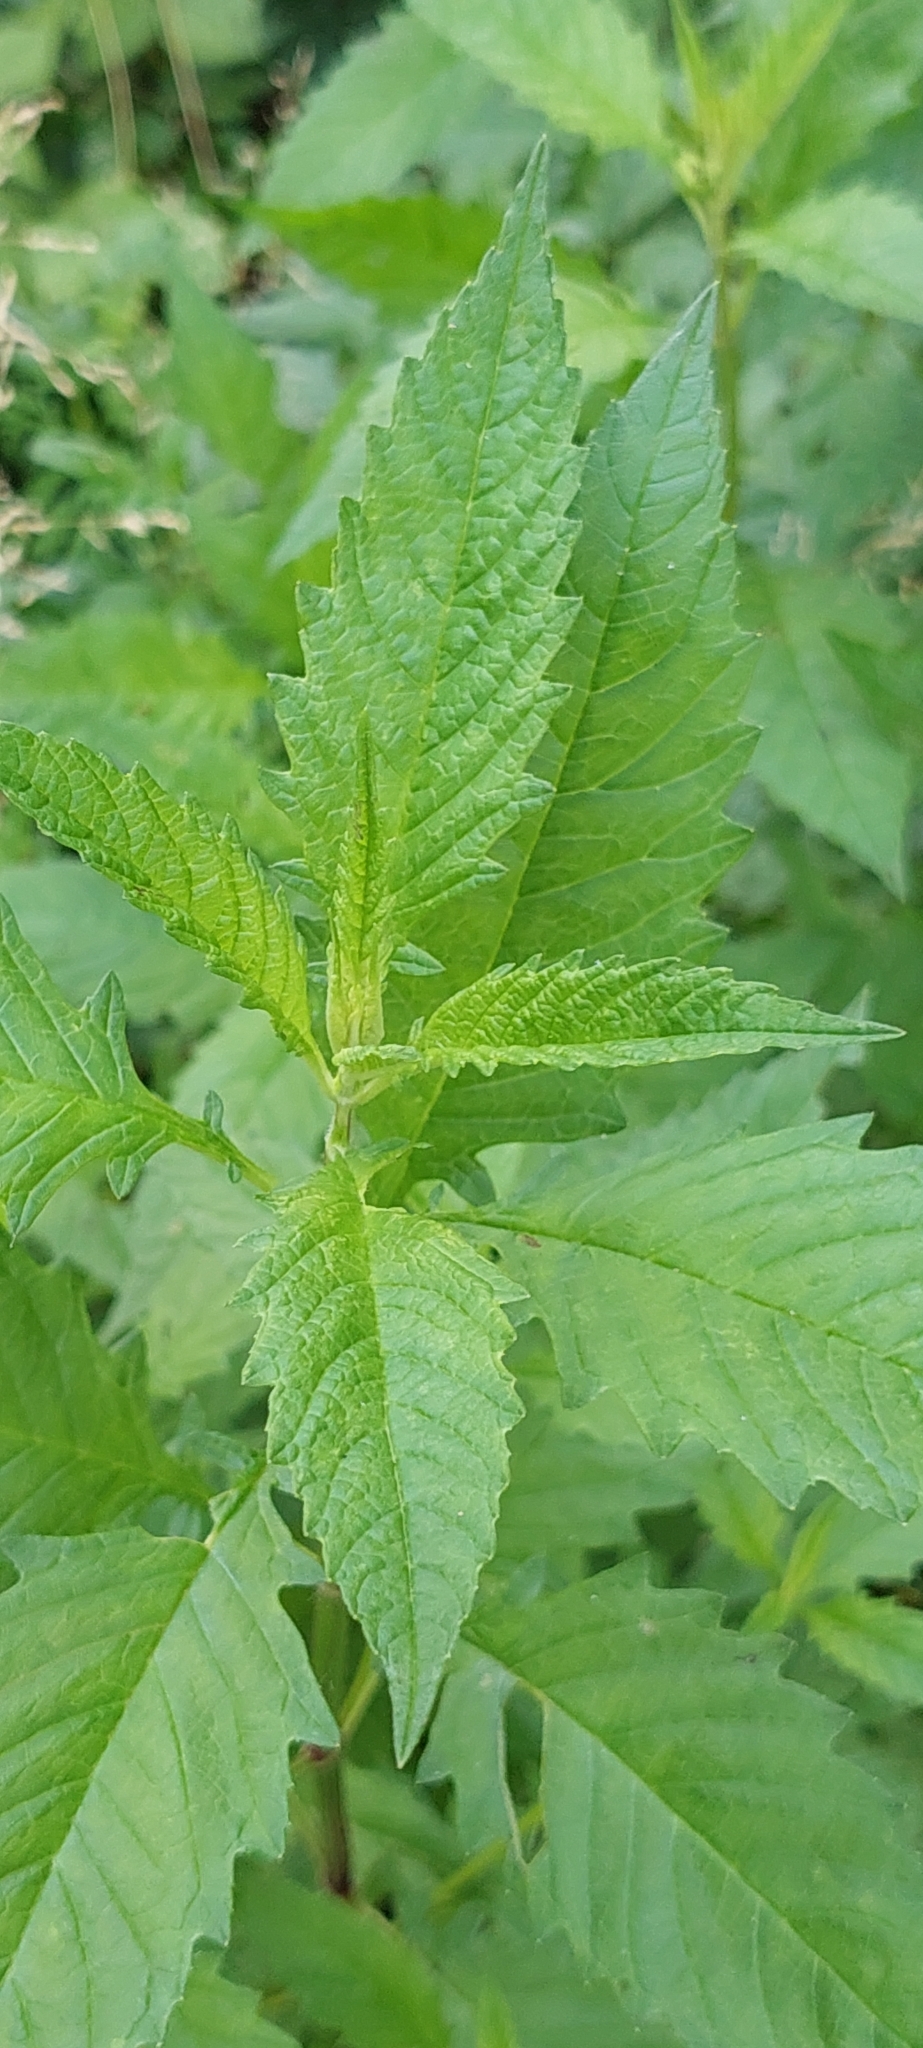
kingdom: Plantae
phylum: Tracheophyta
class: Magnoliopsida
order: Lamiales
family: Lamiaceae
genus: Lycopus
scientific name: Lycopus europaeus
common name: European bugleweed
